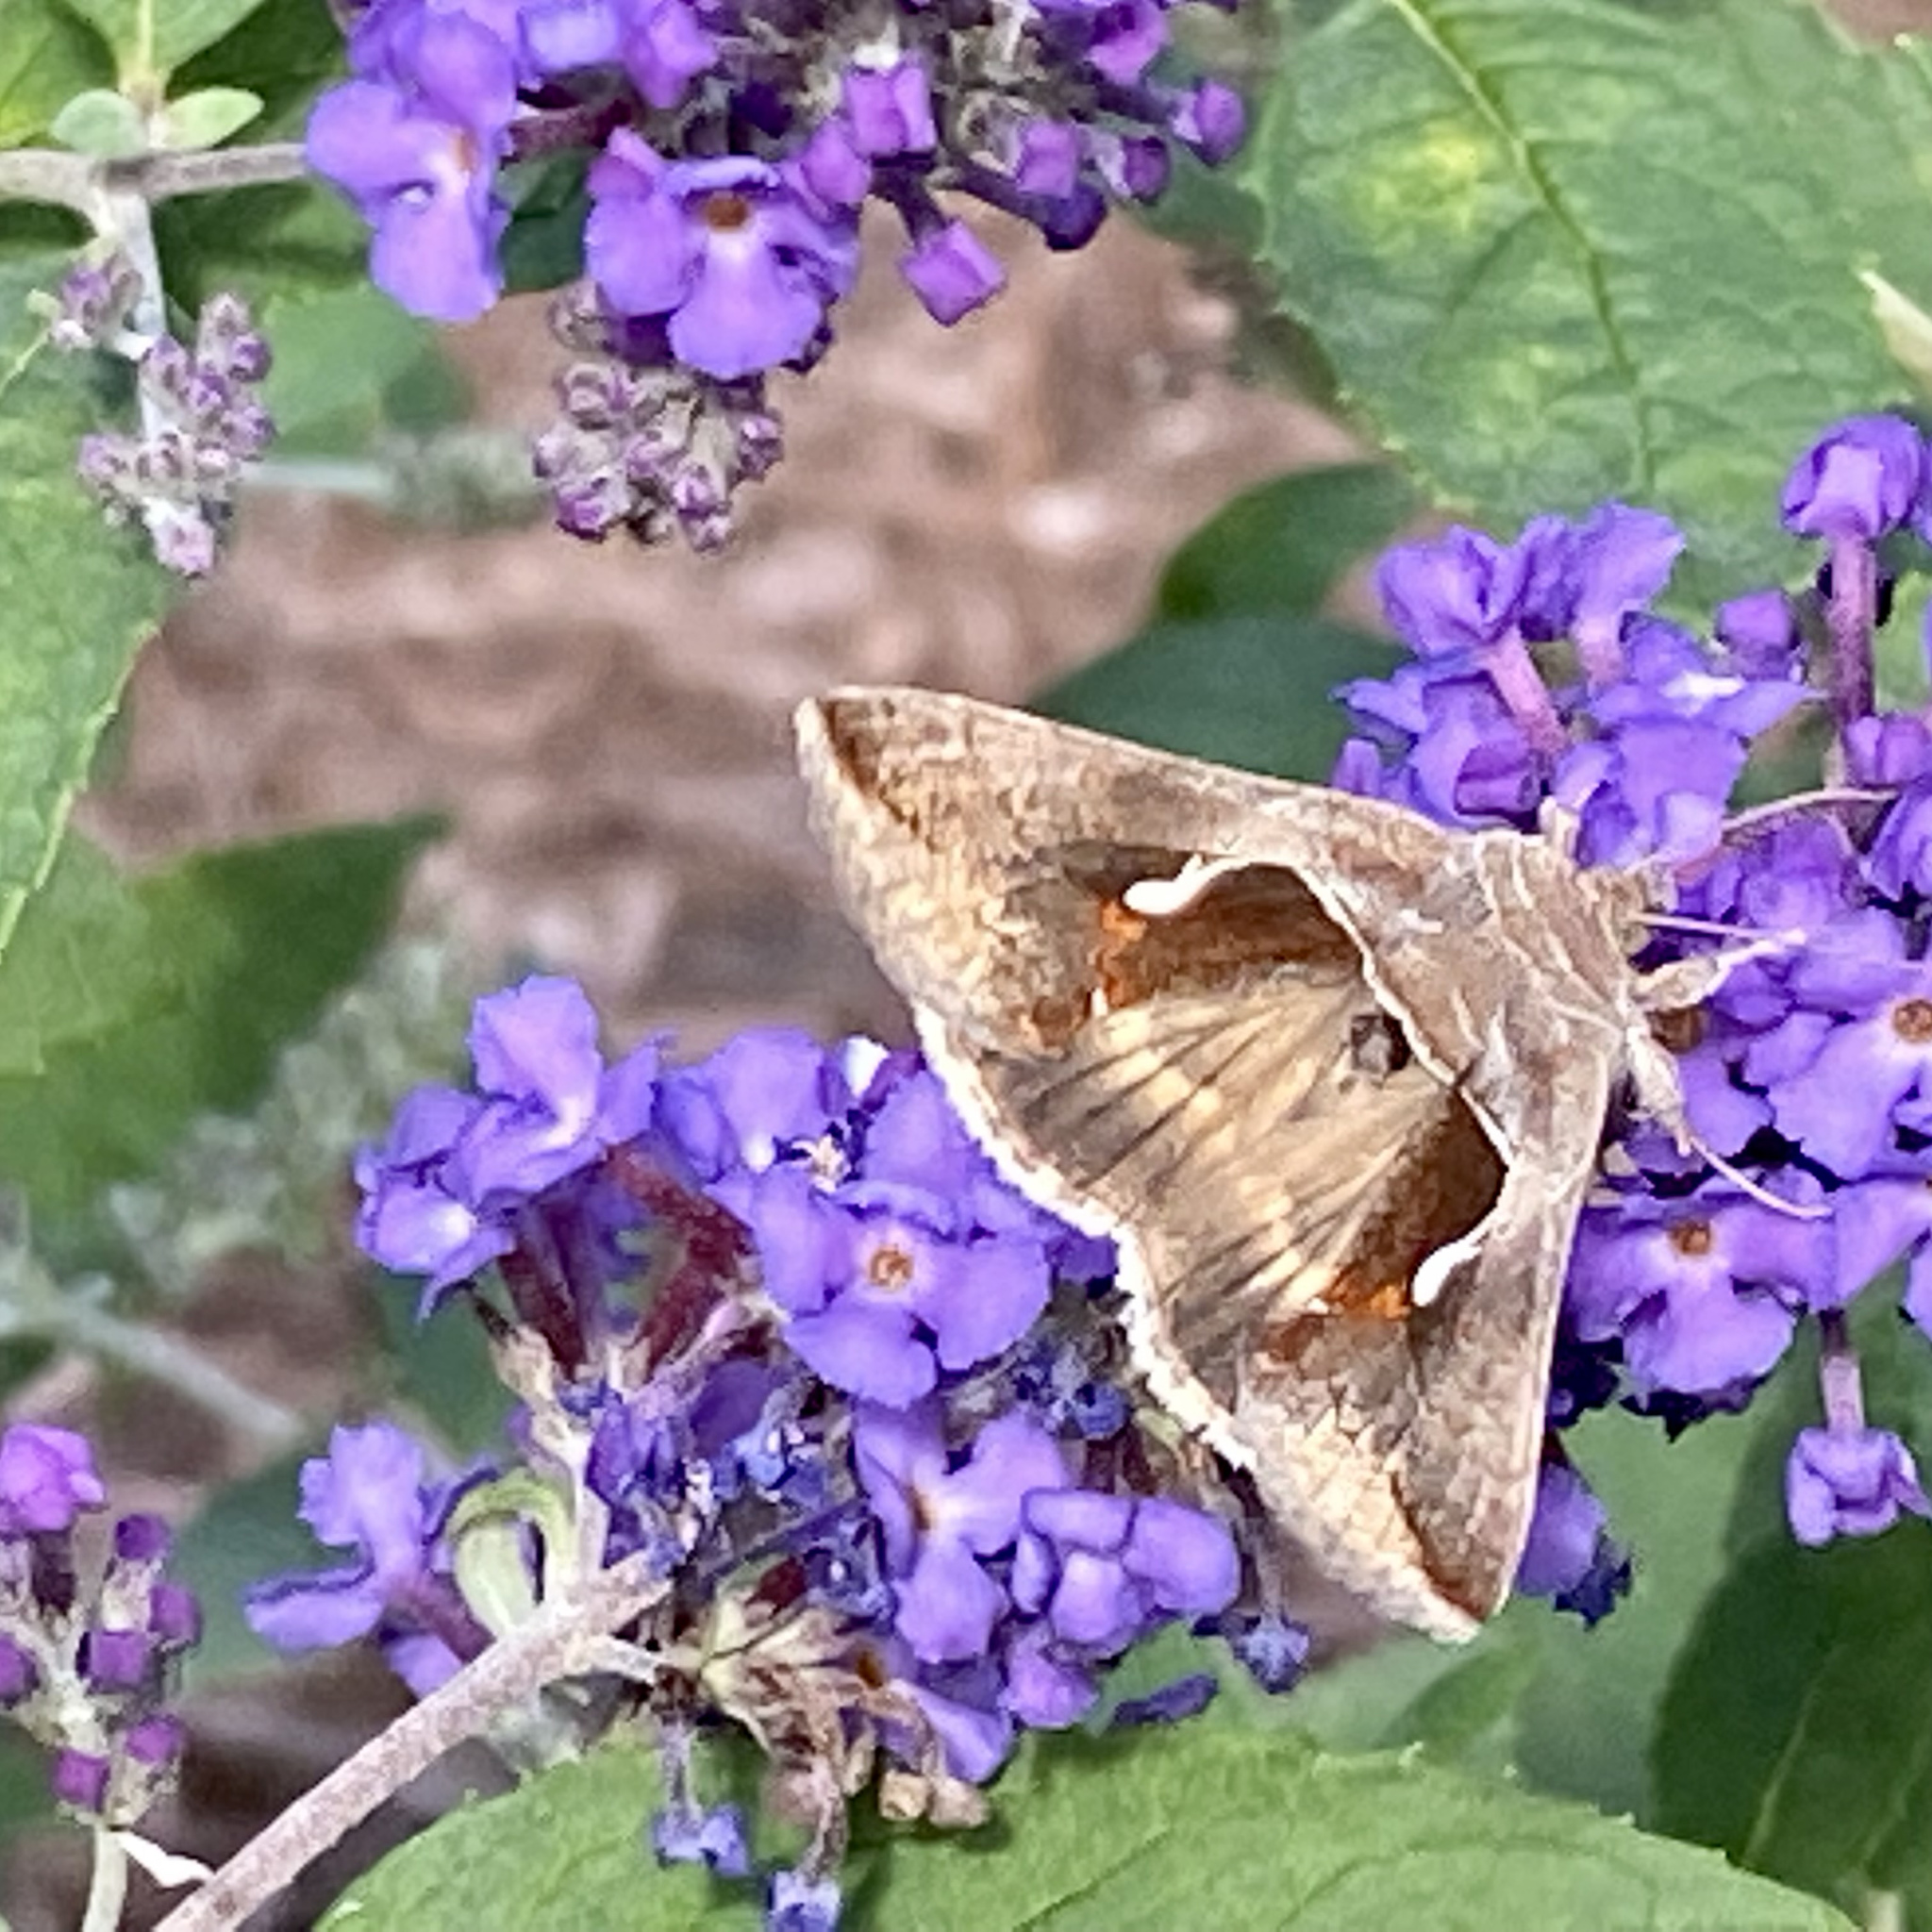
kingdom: Animalia
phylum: Arthropoda
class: Insecta
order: Lepidoptera
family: Noctuidae
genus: Anagrapha
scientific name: Anagrapha falcifera
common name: Celery looper
